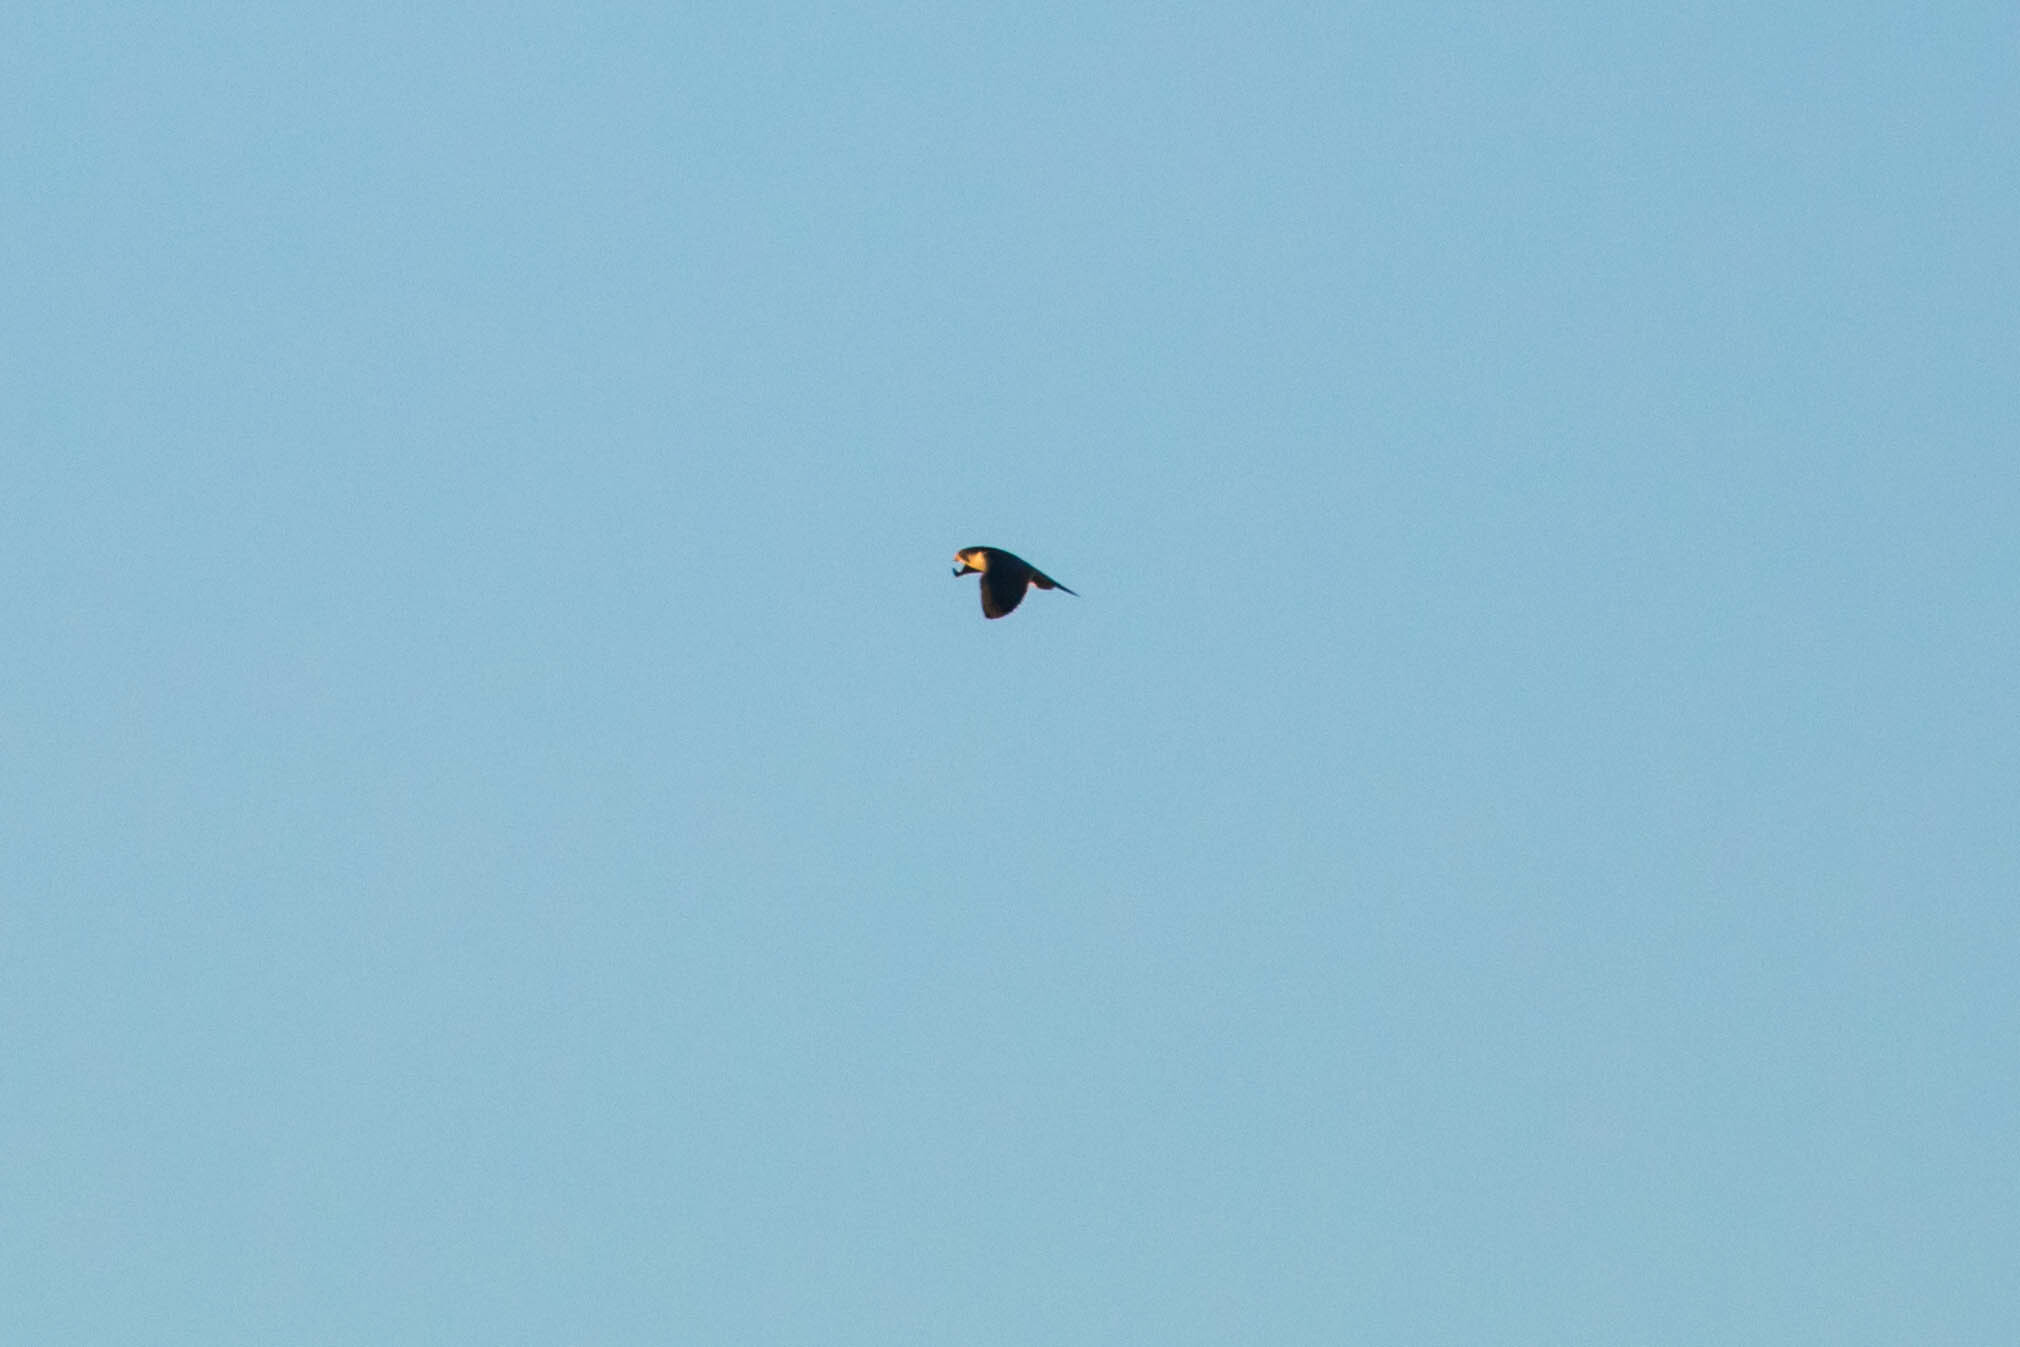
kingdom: Animalia
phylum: Chordata
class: Aves
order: Falconiformes
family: Falconidae
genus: Falco
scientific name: Falco peregrinus
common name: Peregrine falcon
